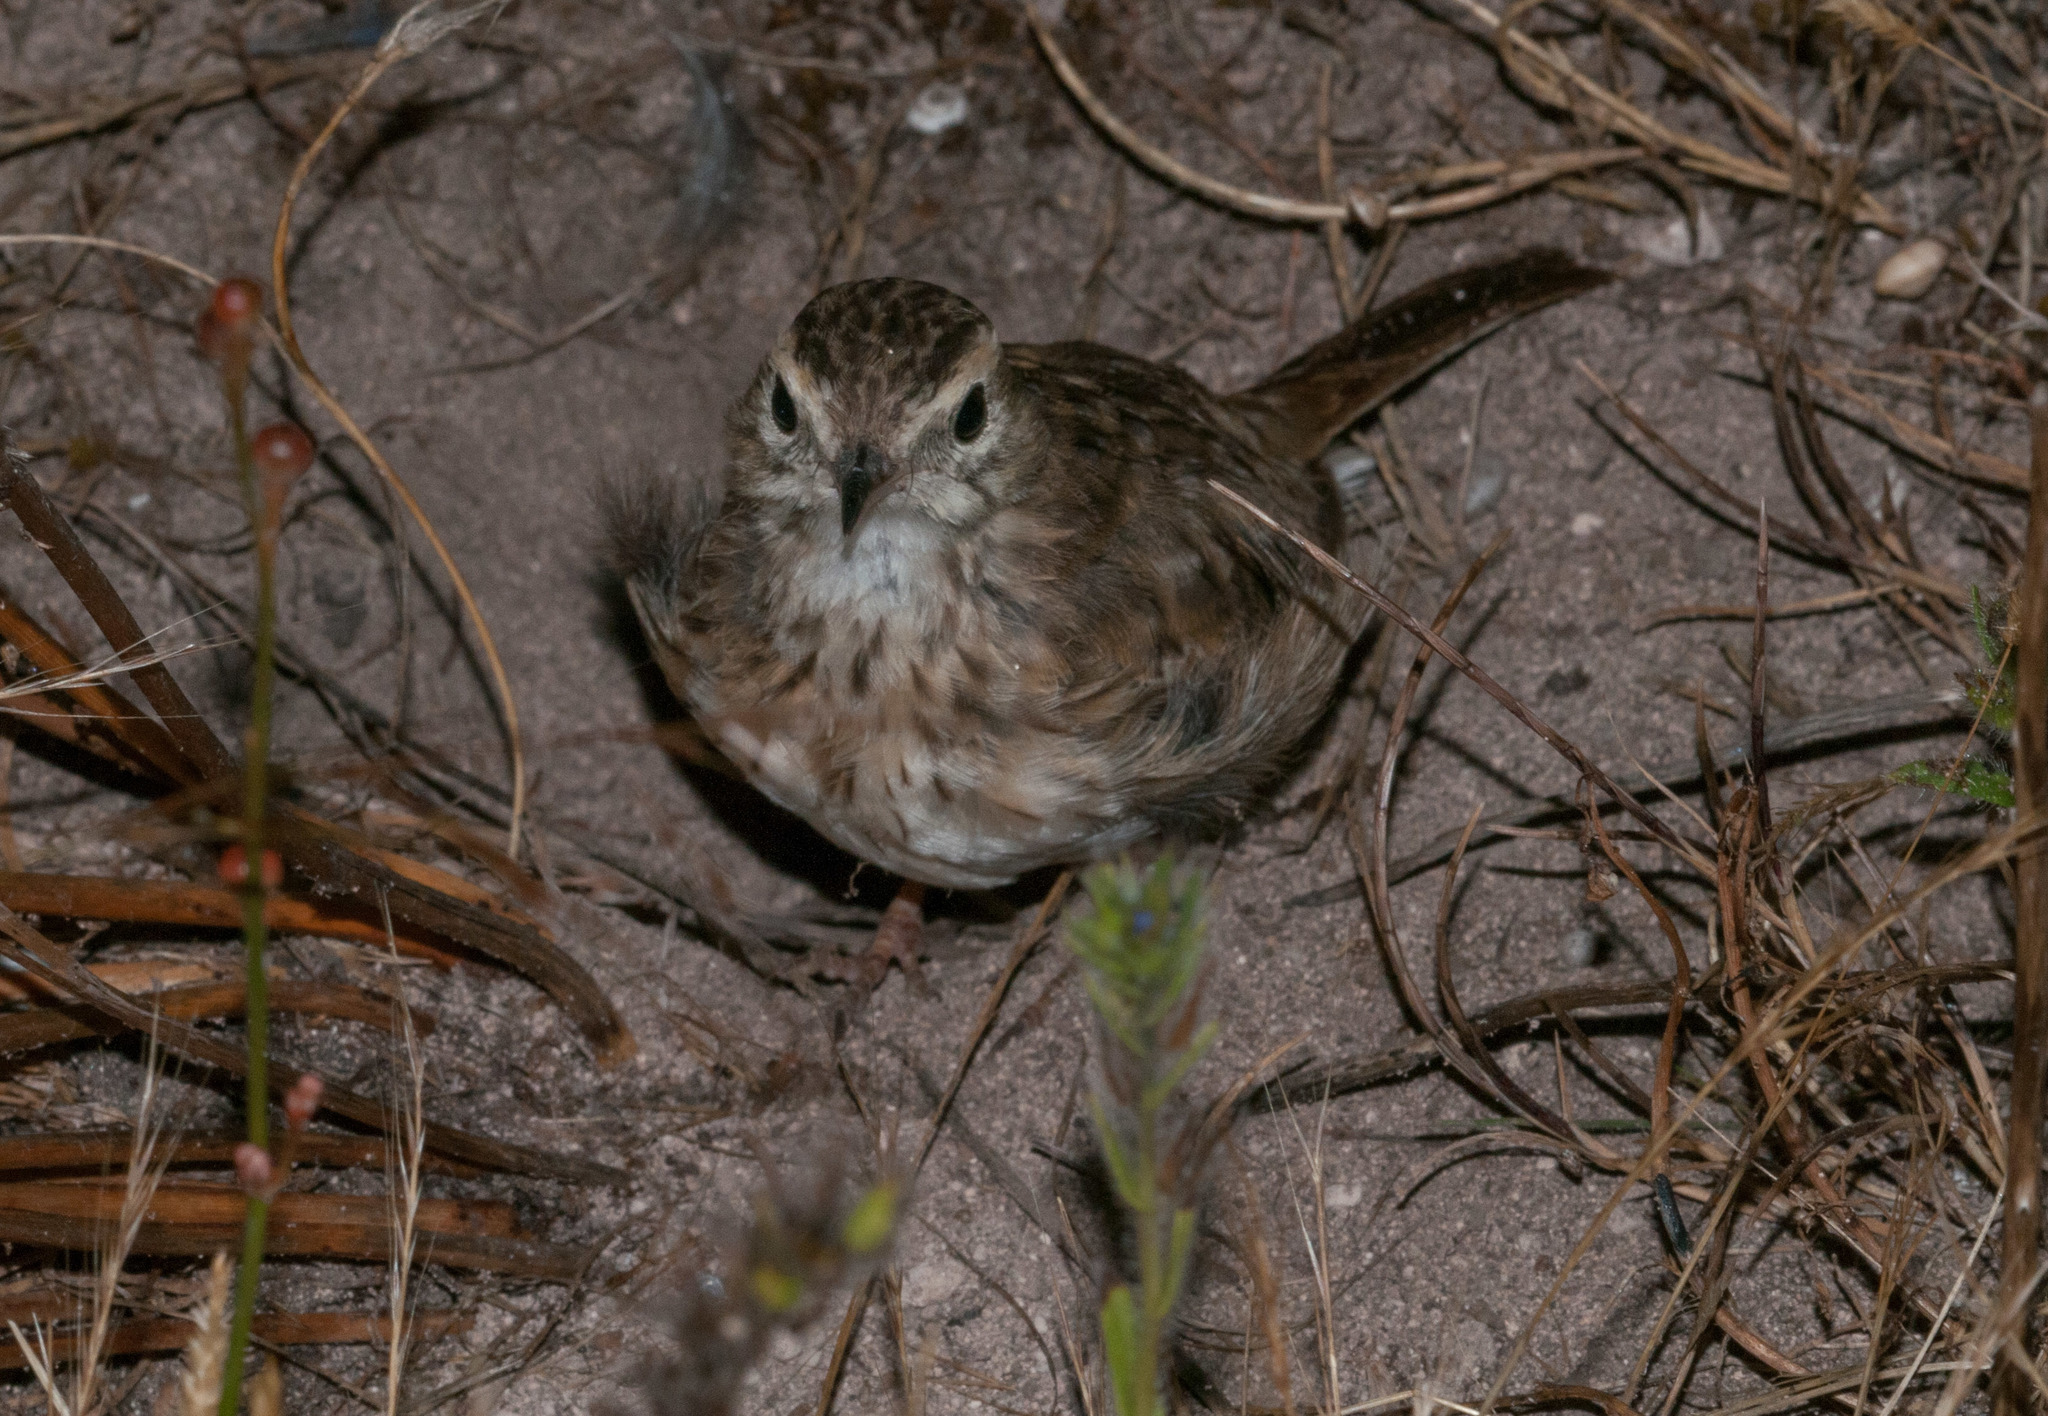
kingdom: Animalia
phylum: Chordata
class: Aves
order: Passeriformes
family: Motacillidae
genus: Anthus
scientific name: Anthus australis
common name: Australian pipit
